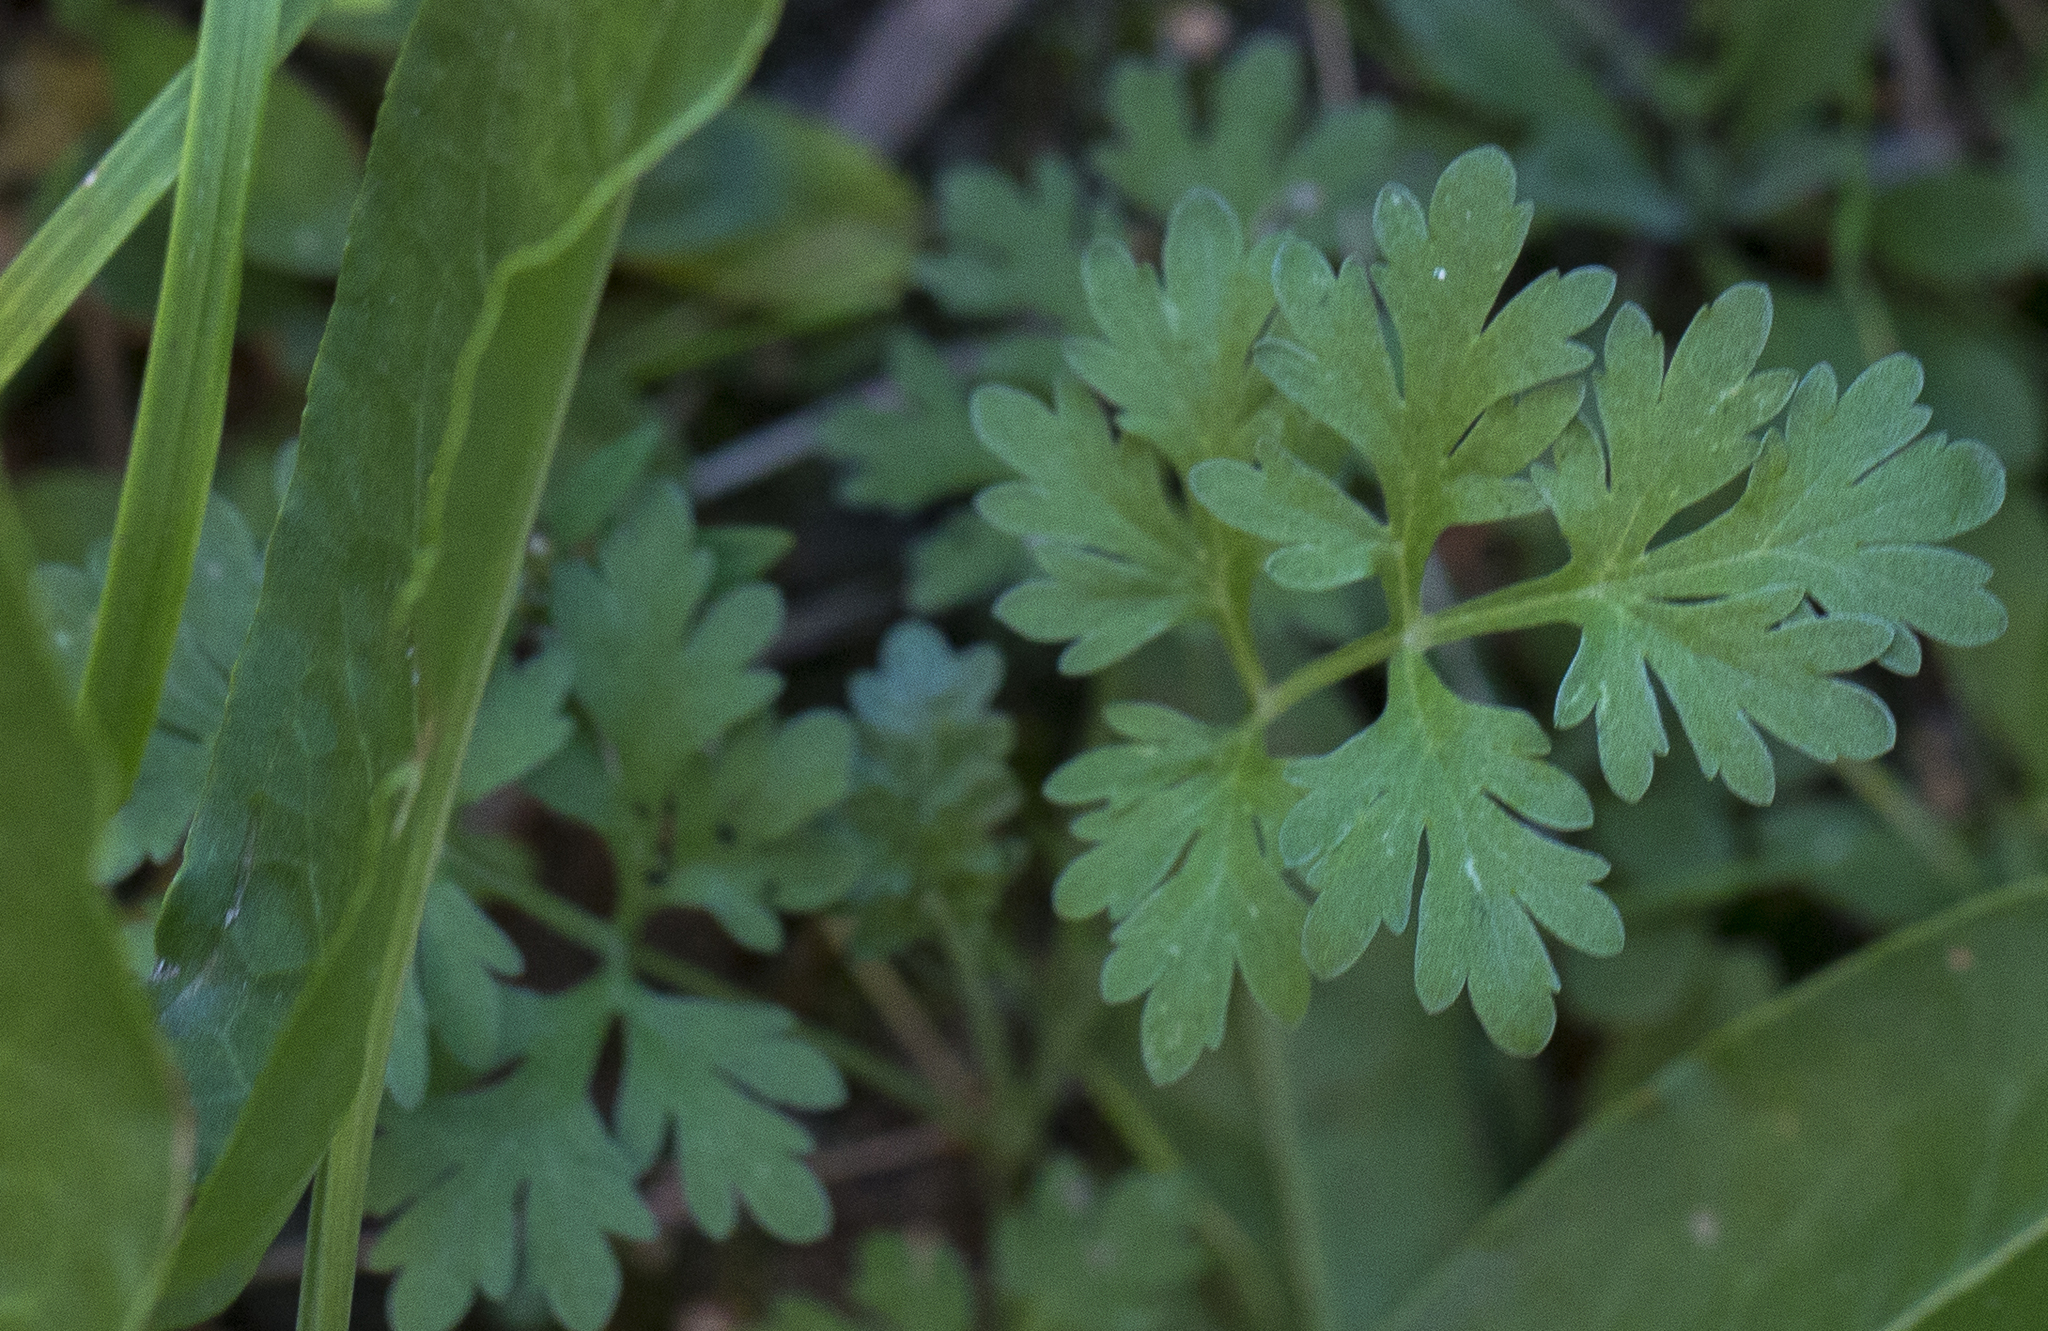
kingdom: Plantae
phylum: Tracheophyta
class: Magnoliopsida
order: Asterales
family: Asteraceae
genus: Artemisia
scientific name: Artemisia absinthium
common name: Wormwood
